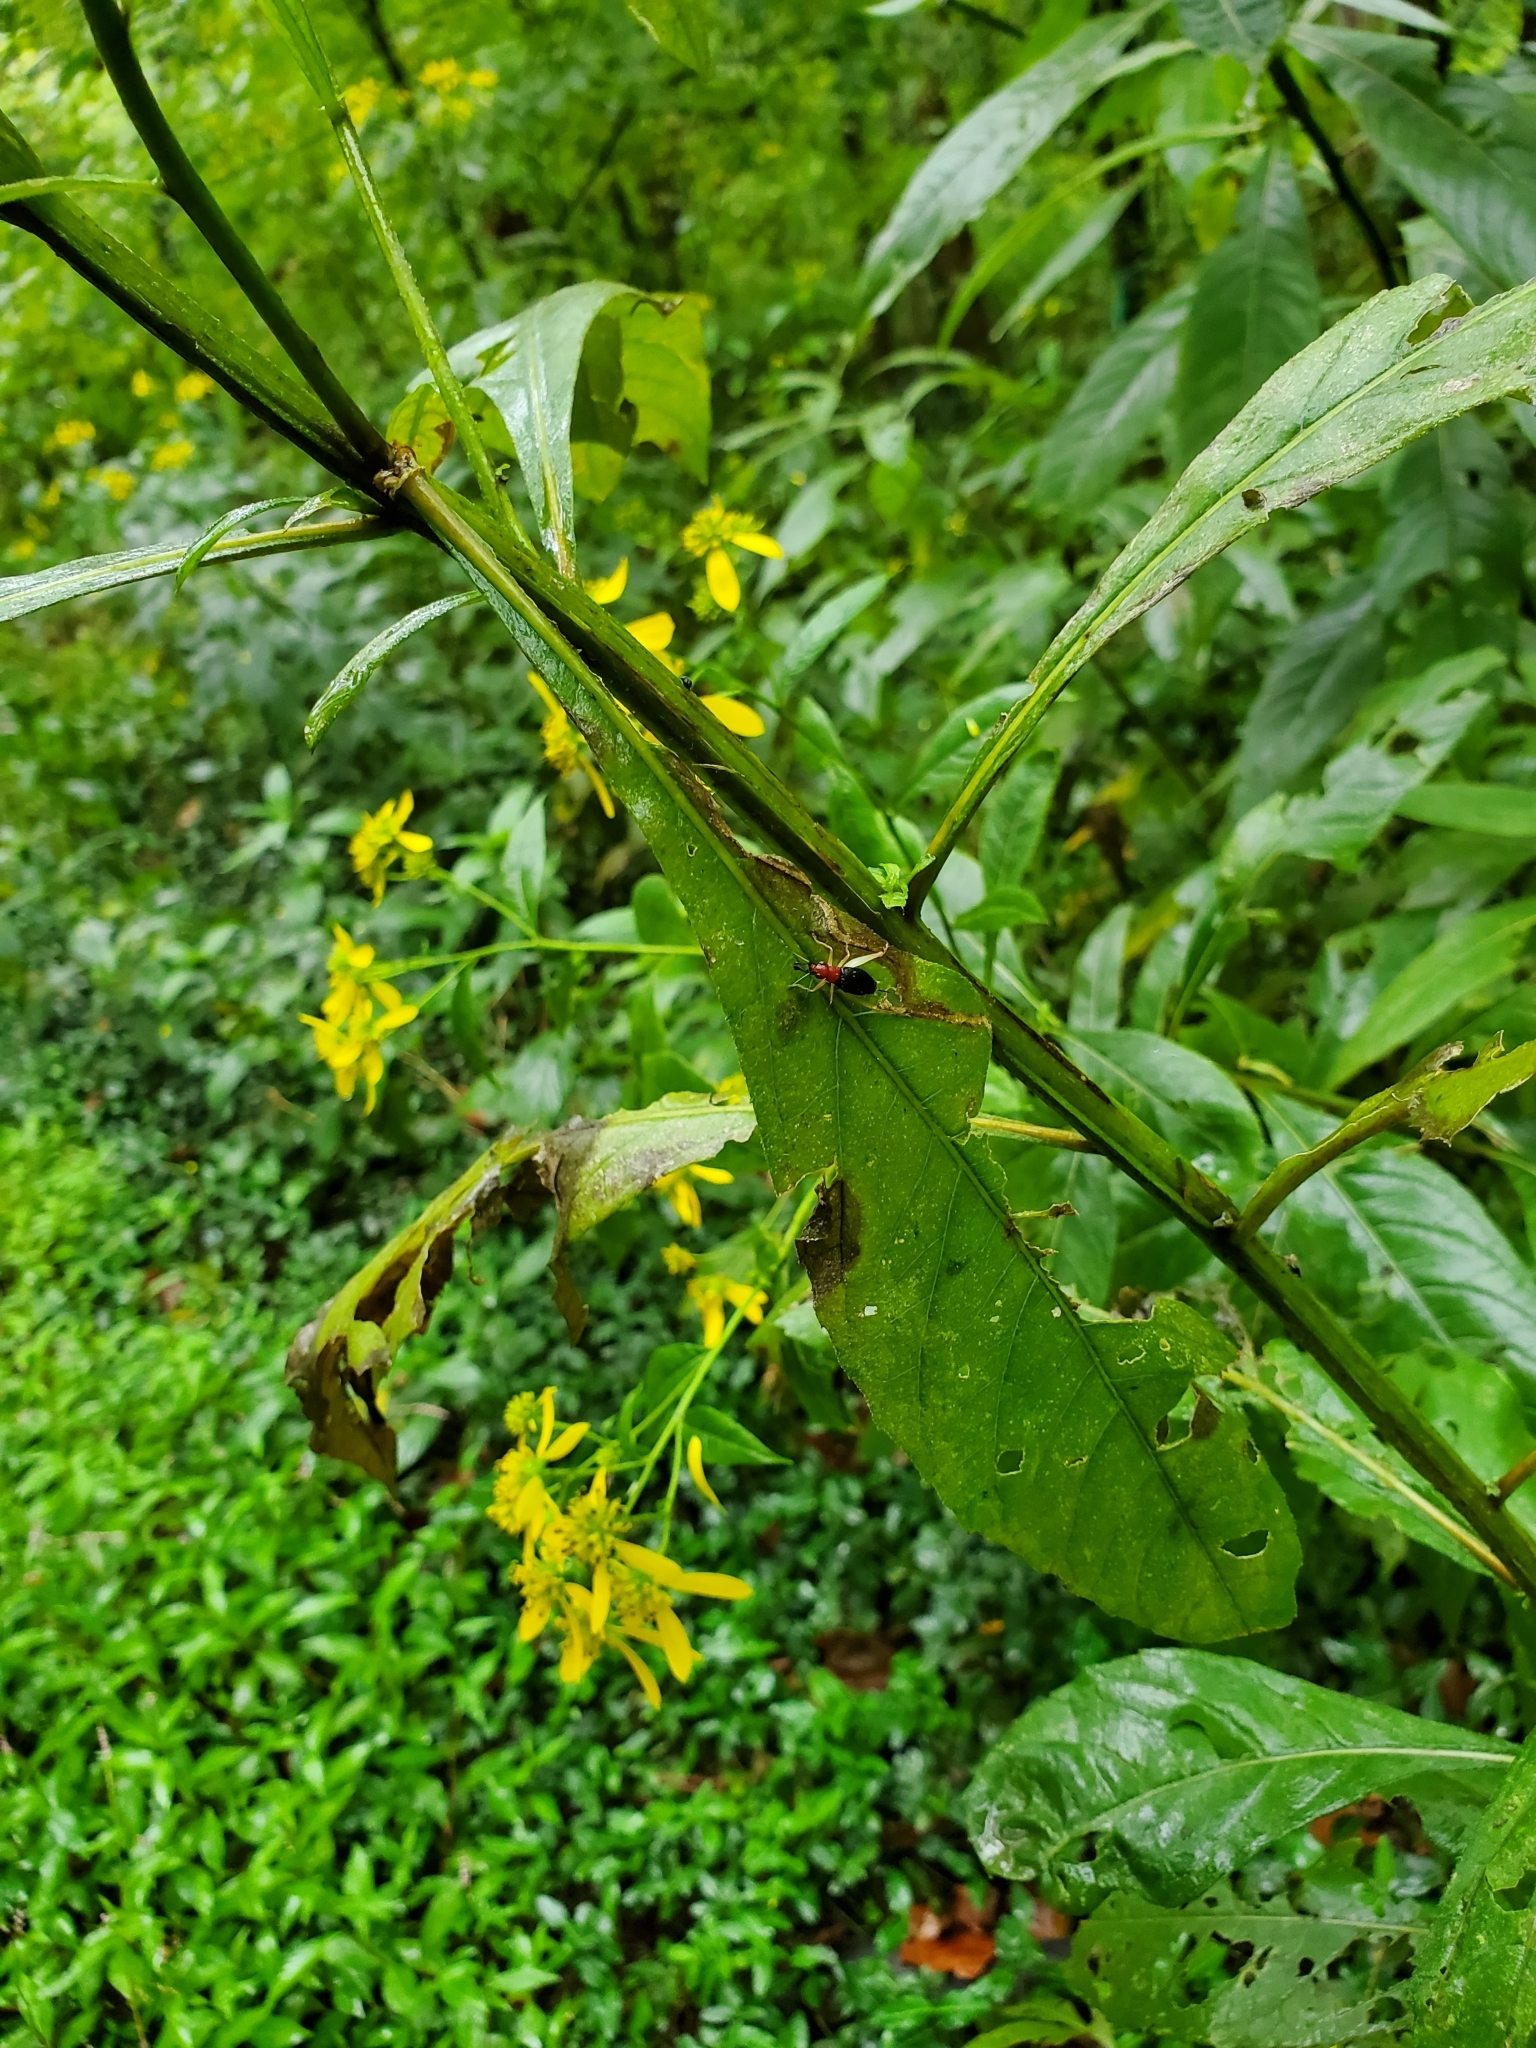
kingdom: Animalia
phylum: Arthropoda
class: Insecta
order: Orthoptera
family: Trigonidiidae
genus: Phyllopalpus
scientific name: Phyllopalpus pulchellus
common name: Handsome trig
